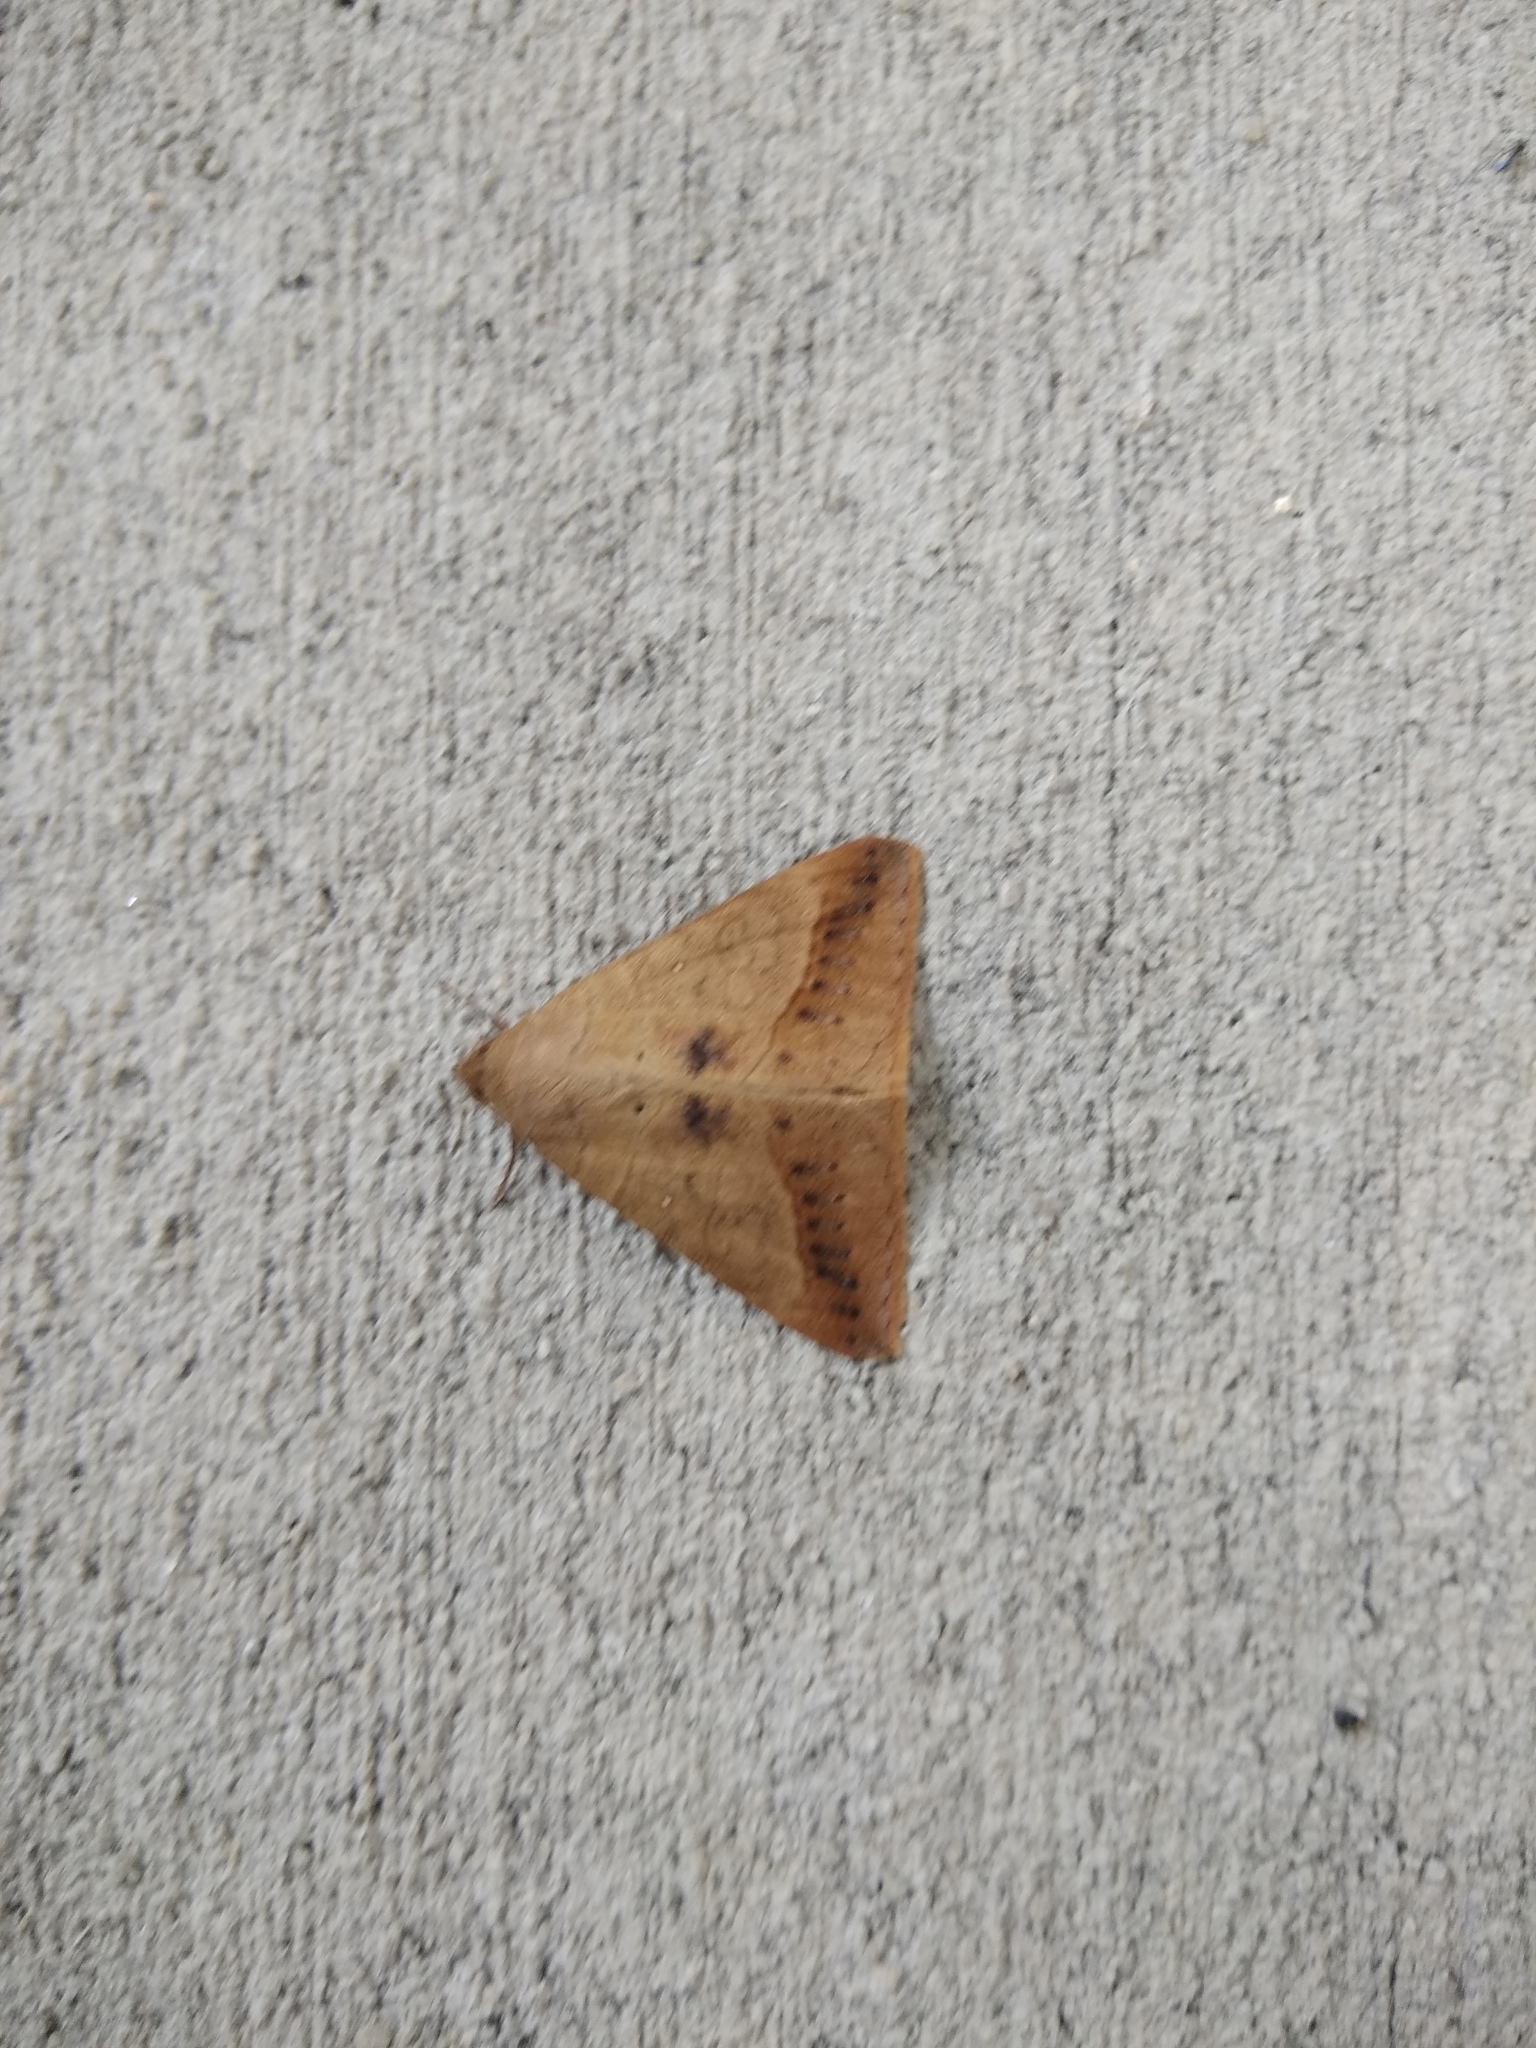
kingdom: Animalia
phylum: Arthropoda
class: Insecta
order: Lepidoptera
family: Erebidae
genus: Mocis
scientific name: Mocis marcida
